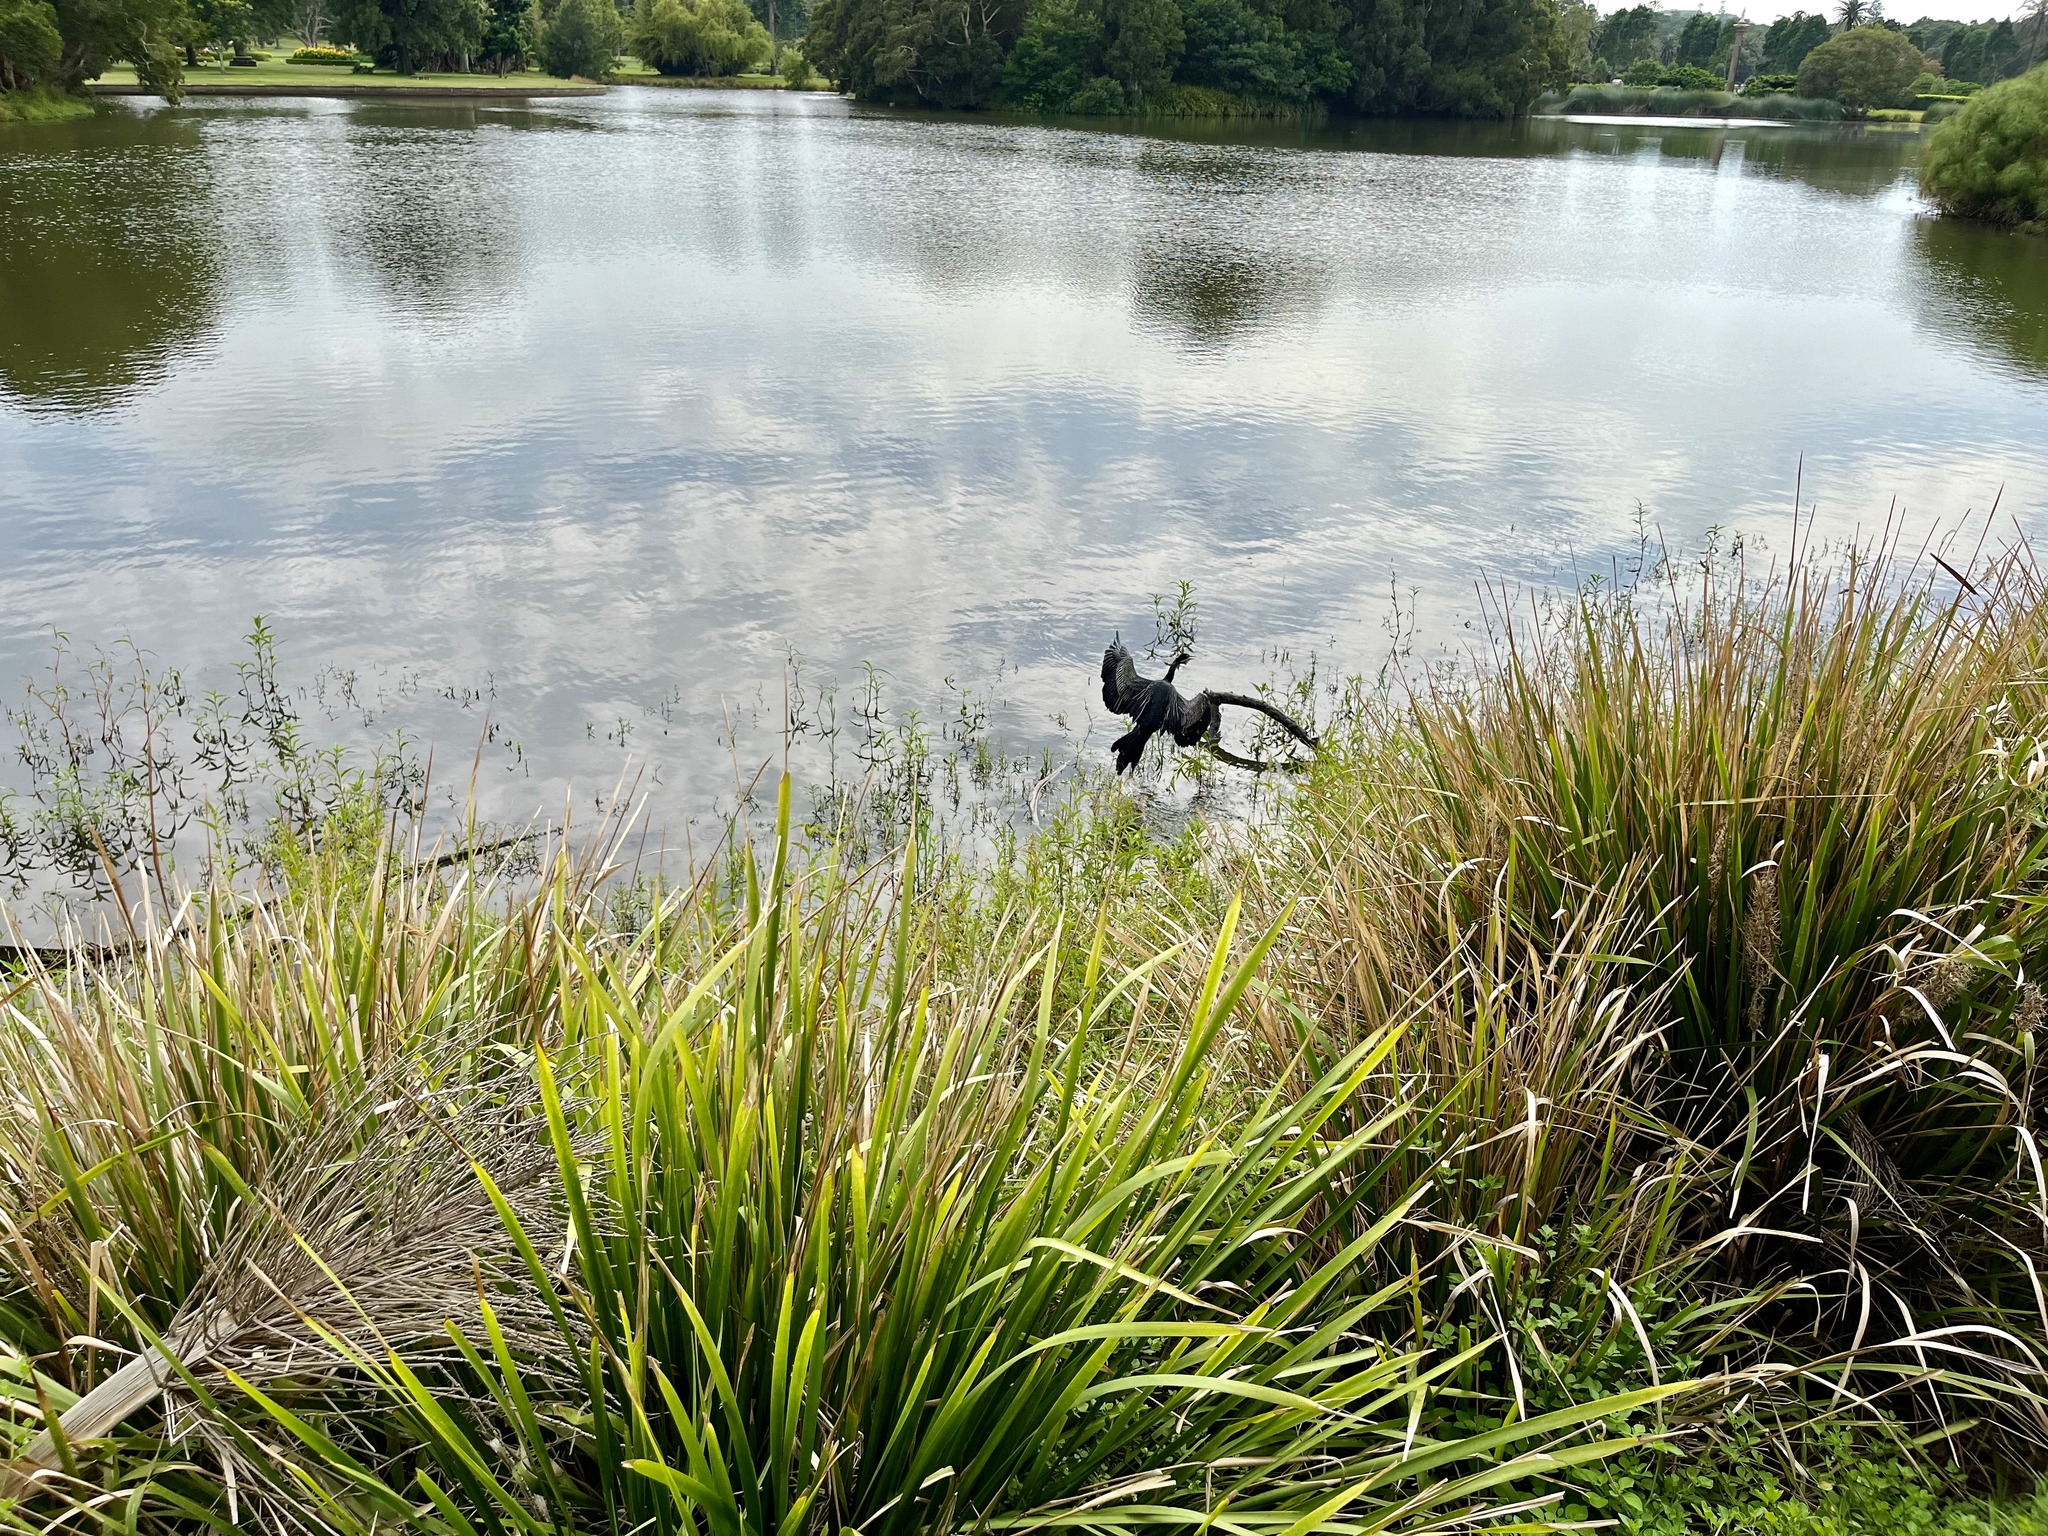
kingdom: Animalia
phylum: Chordata
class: Aves
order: Suliformes
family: Anhingidae
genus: Anhinga
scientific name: Anhinga novaehollandiae
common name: Australasian darter
